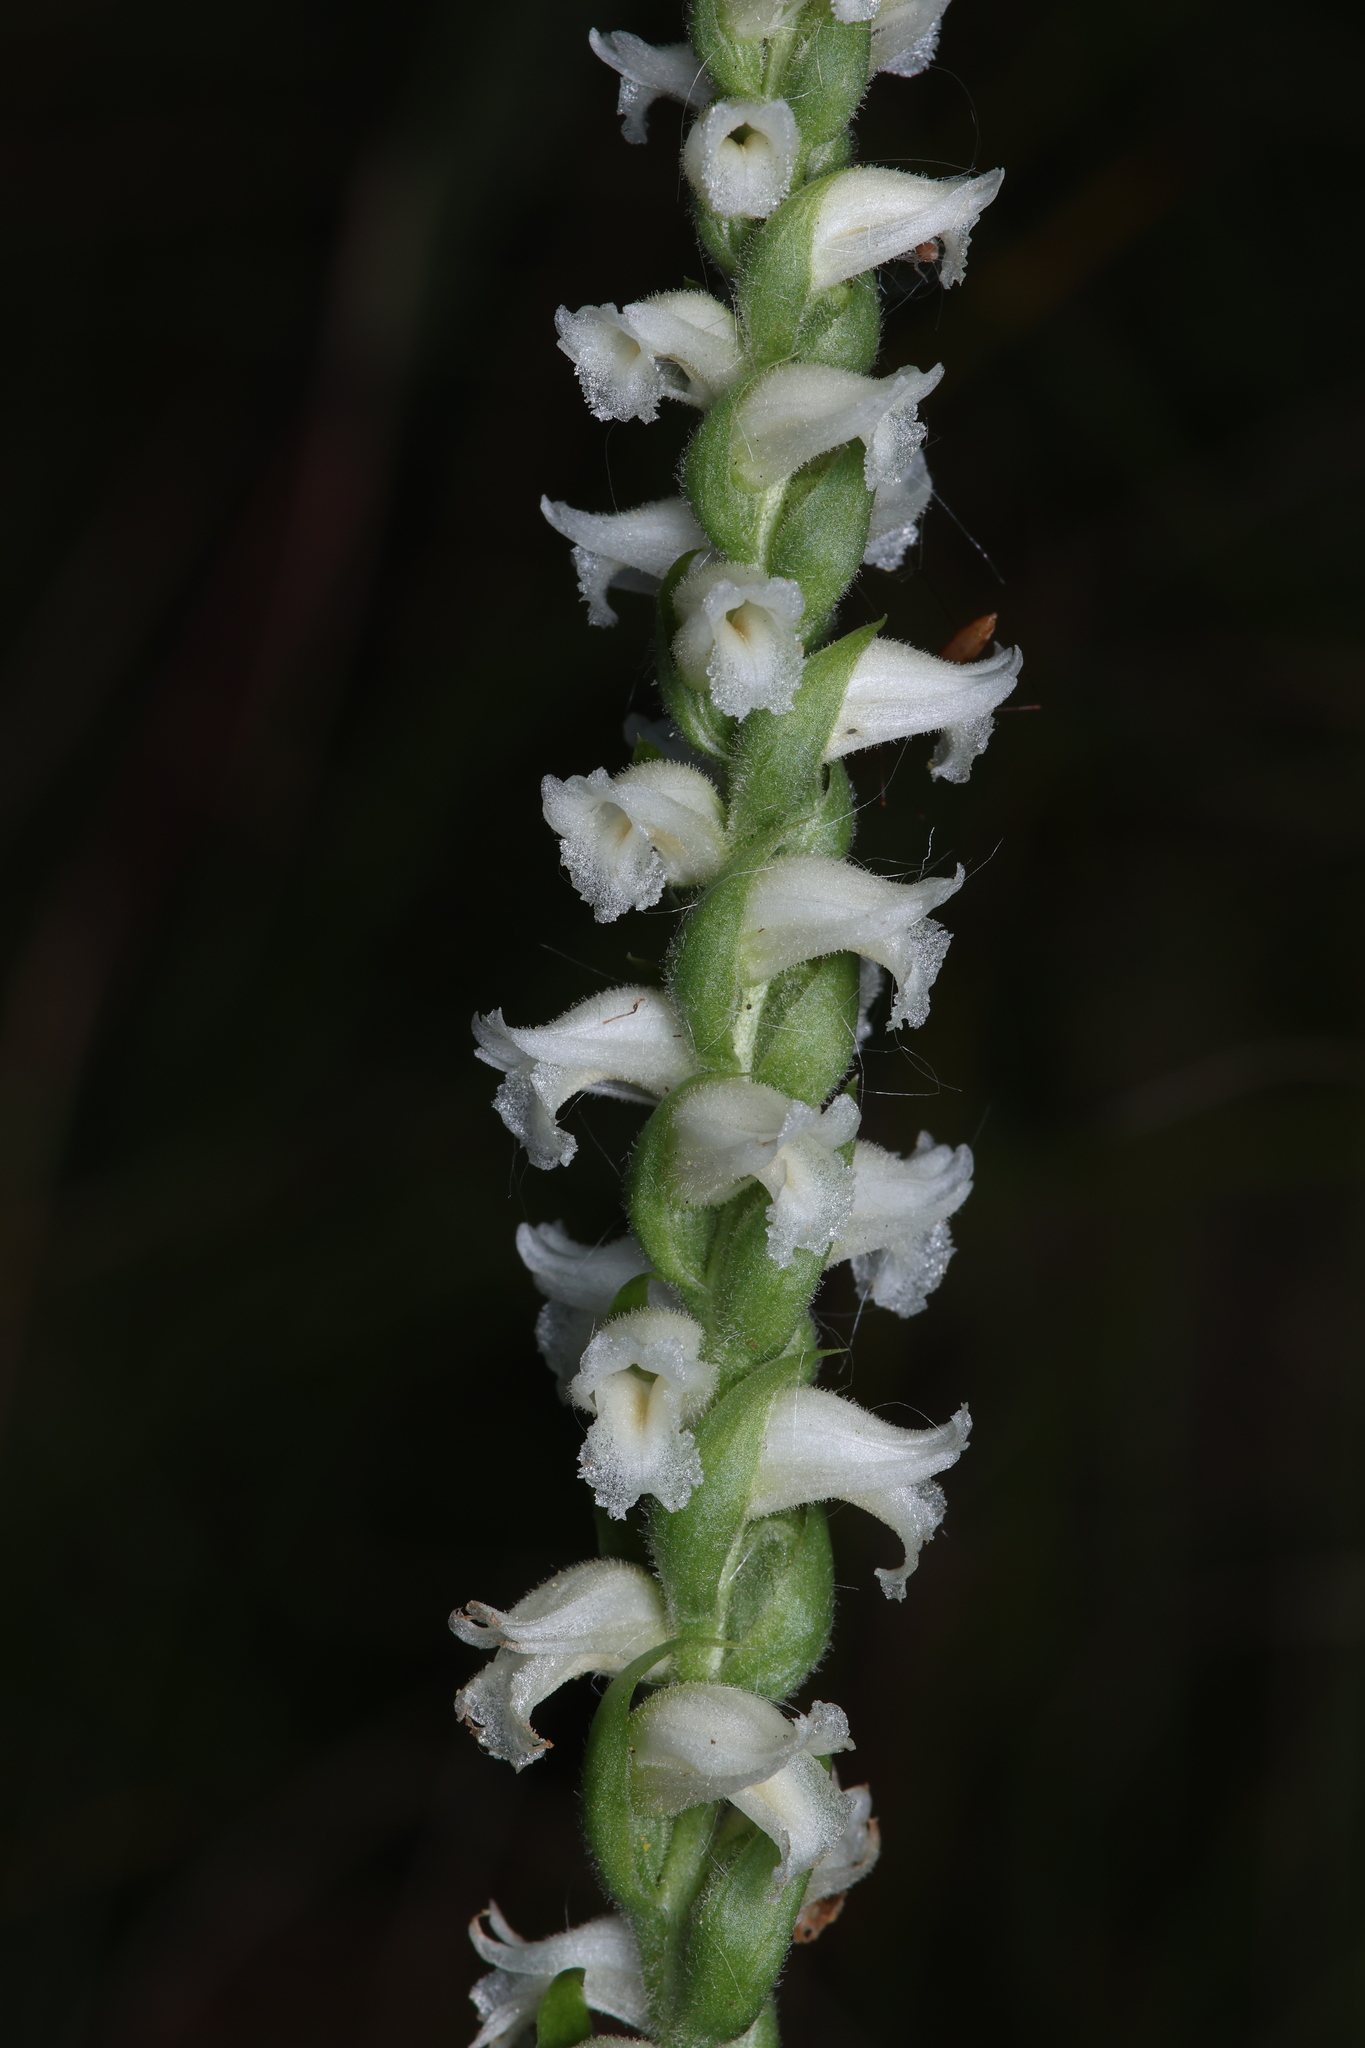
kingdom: Plantae
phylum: Tracheophyta
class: Liliopsida
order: Asparagales
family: Orchidaceae
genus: Spiranthes
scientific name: Spiranthes ochroleuca
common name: Yellow ladies'-tresses
